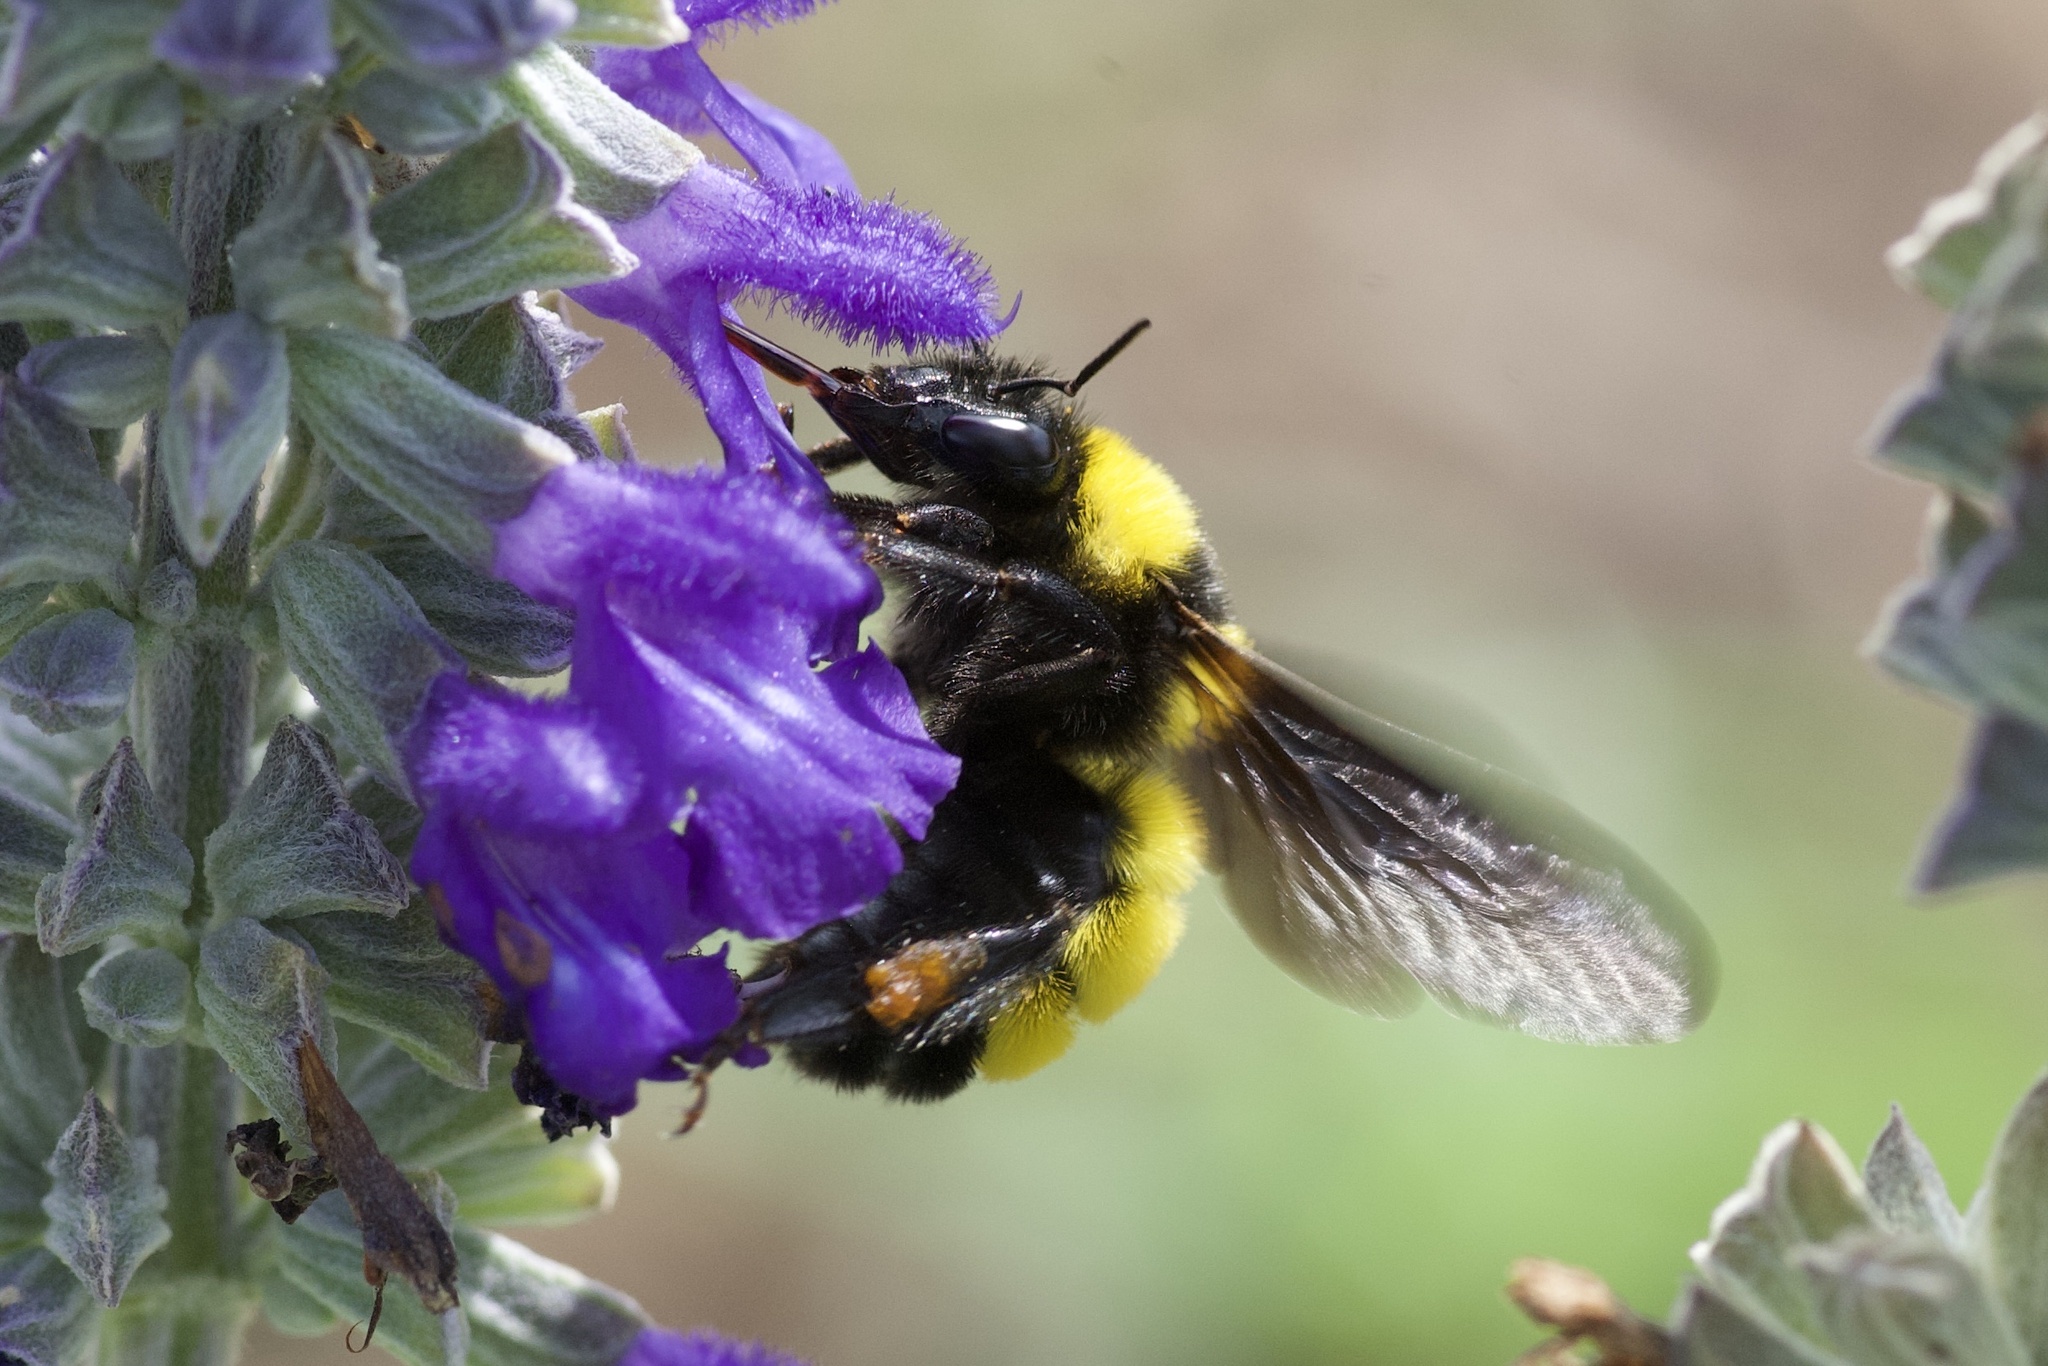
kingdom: Animalia
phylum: Arthropoda
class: Insecta
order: Hymenoptera
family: Apidae
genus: Bombus
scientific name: Bombus sonorus
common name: Sonoran bumble bee
